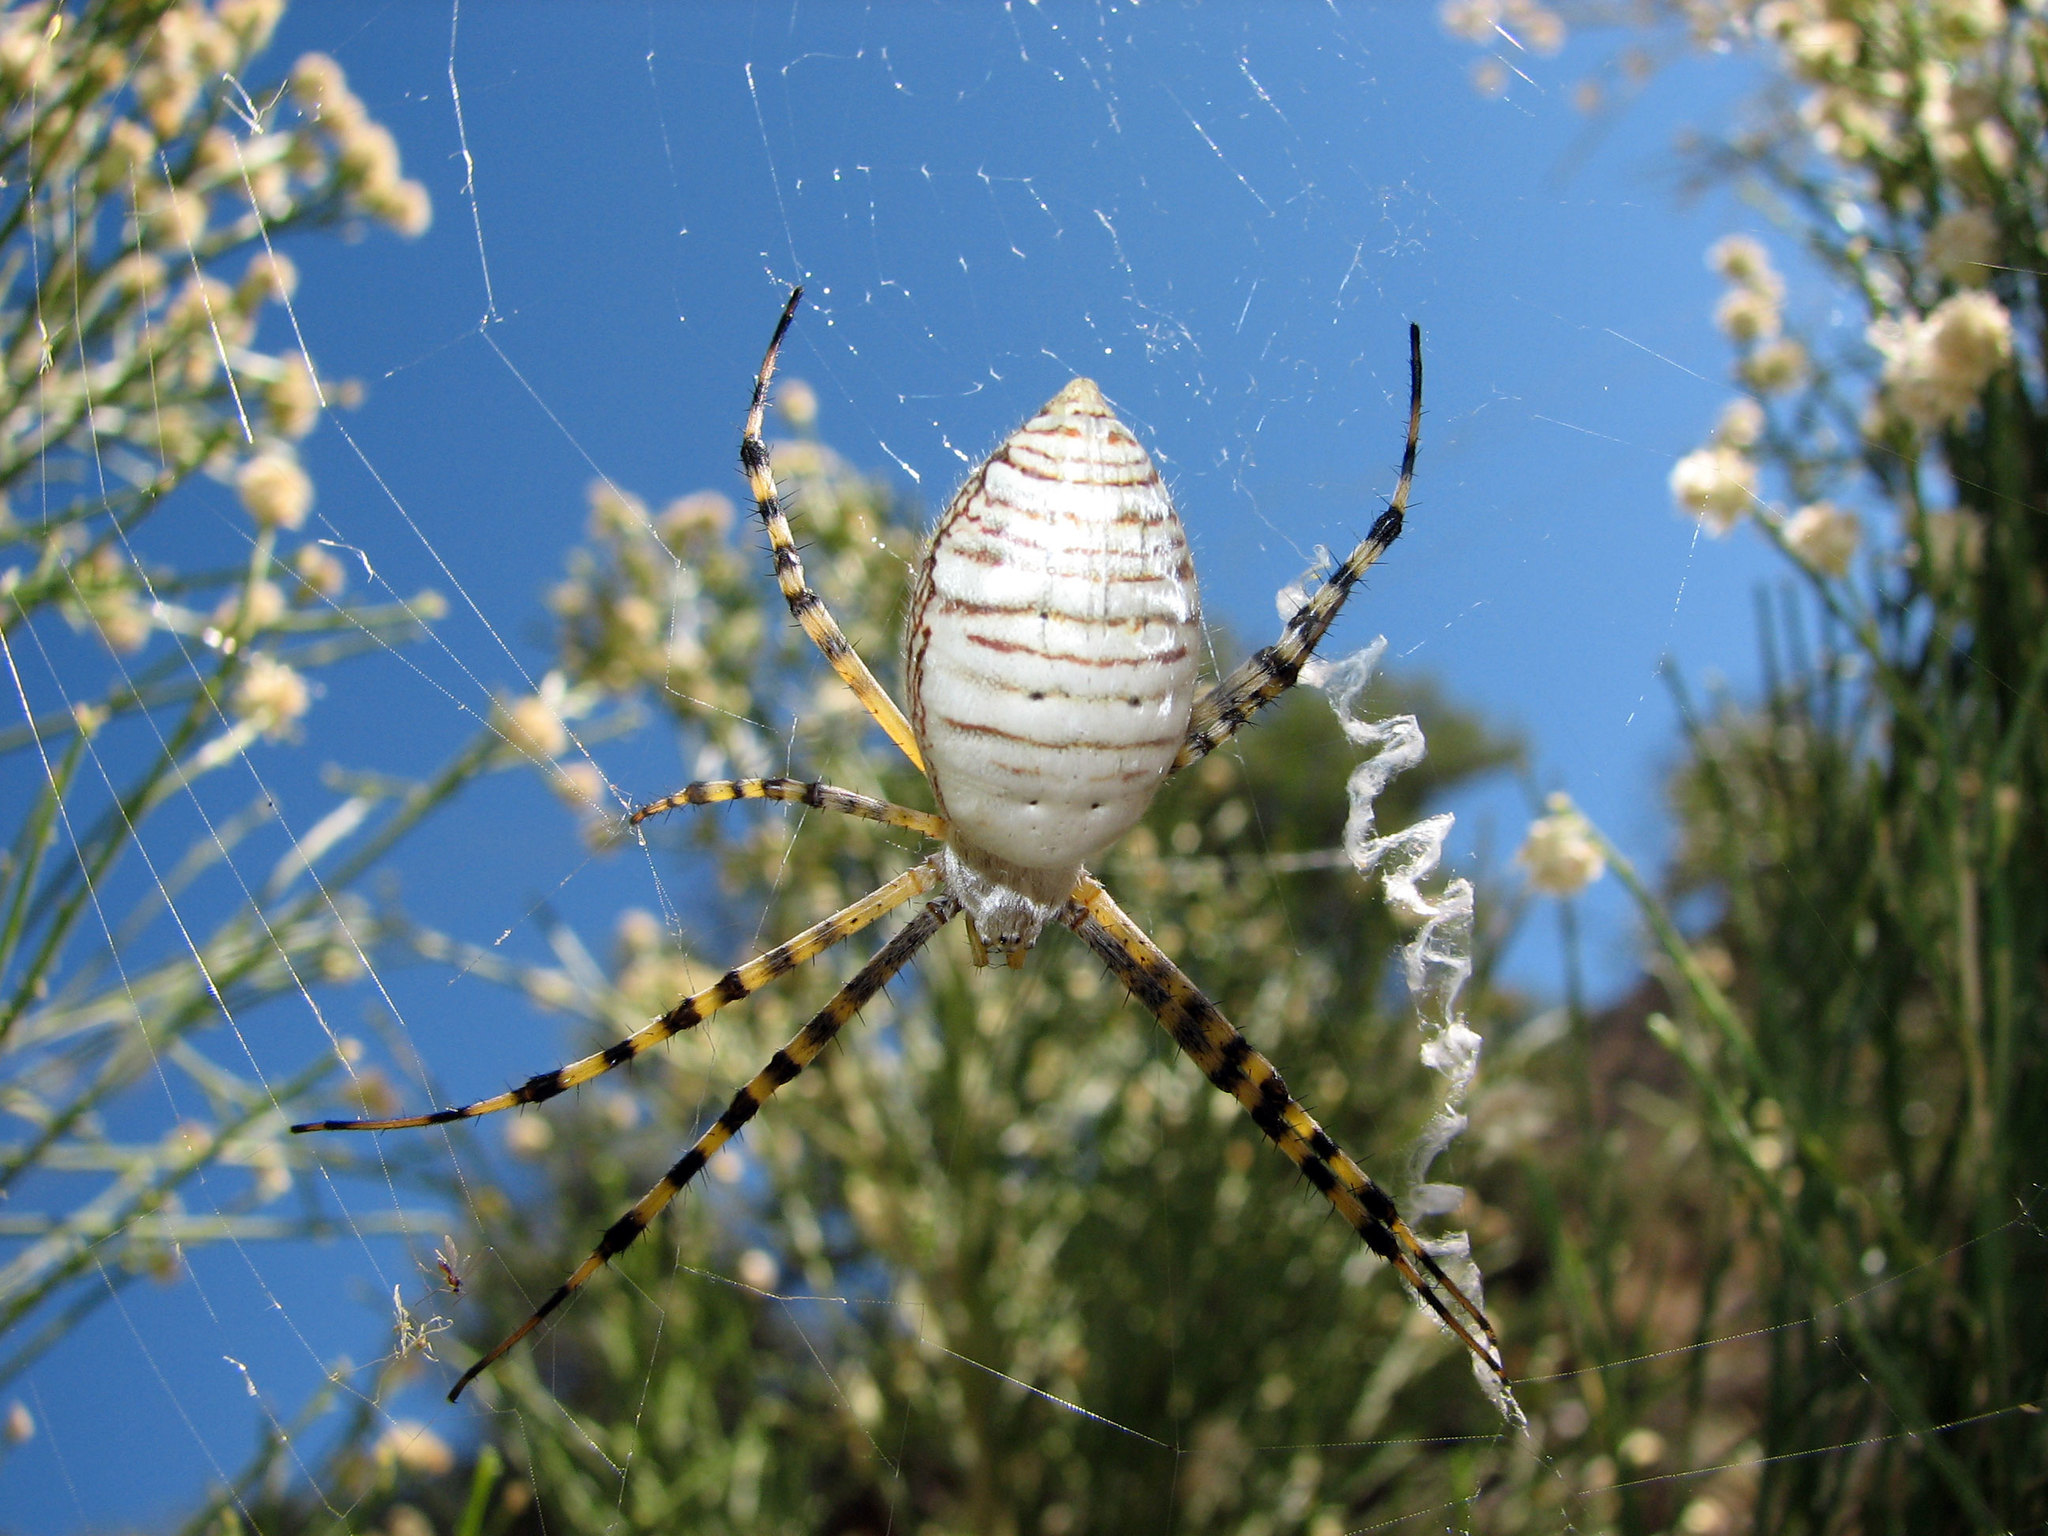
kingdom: Animalia
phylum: Arthropoda
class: Arachnida
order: Araneae
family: Araneidae
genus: Argiope
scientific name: Argiope trifasciata
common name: Banded garden spider
